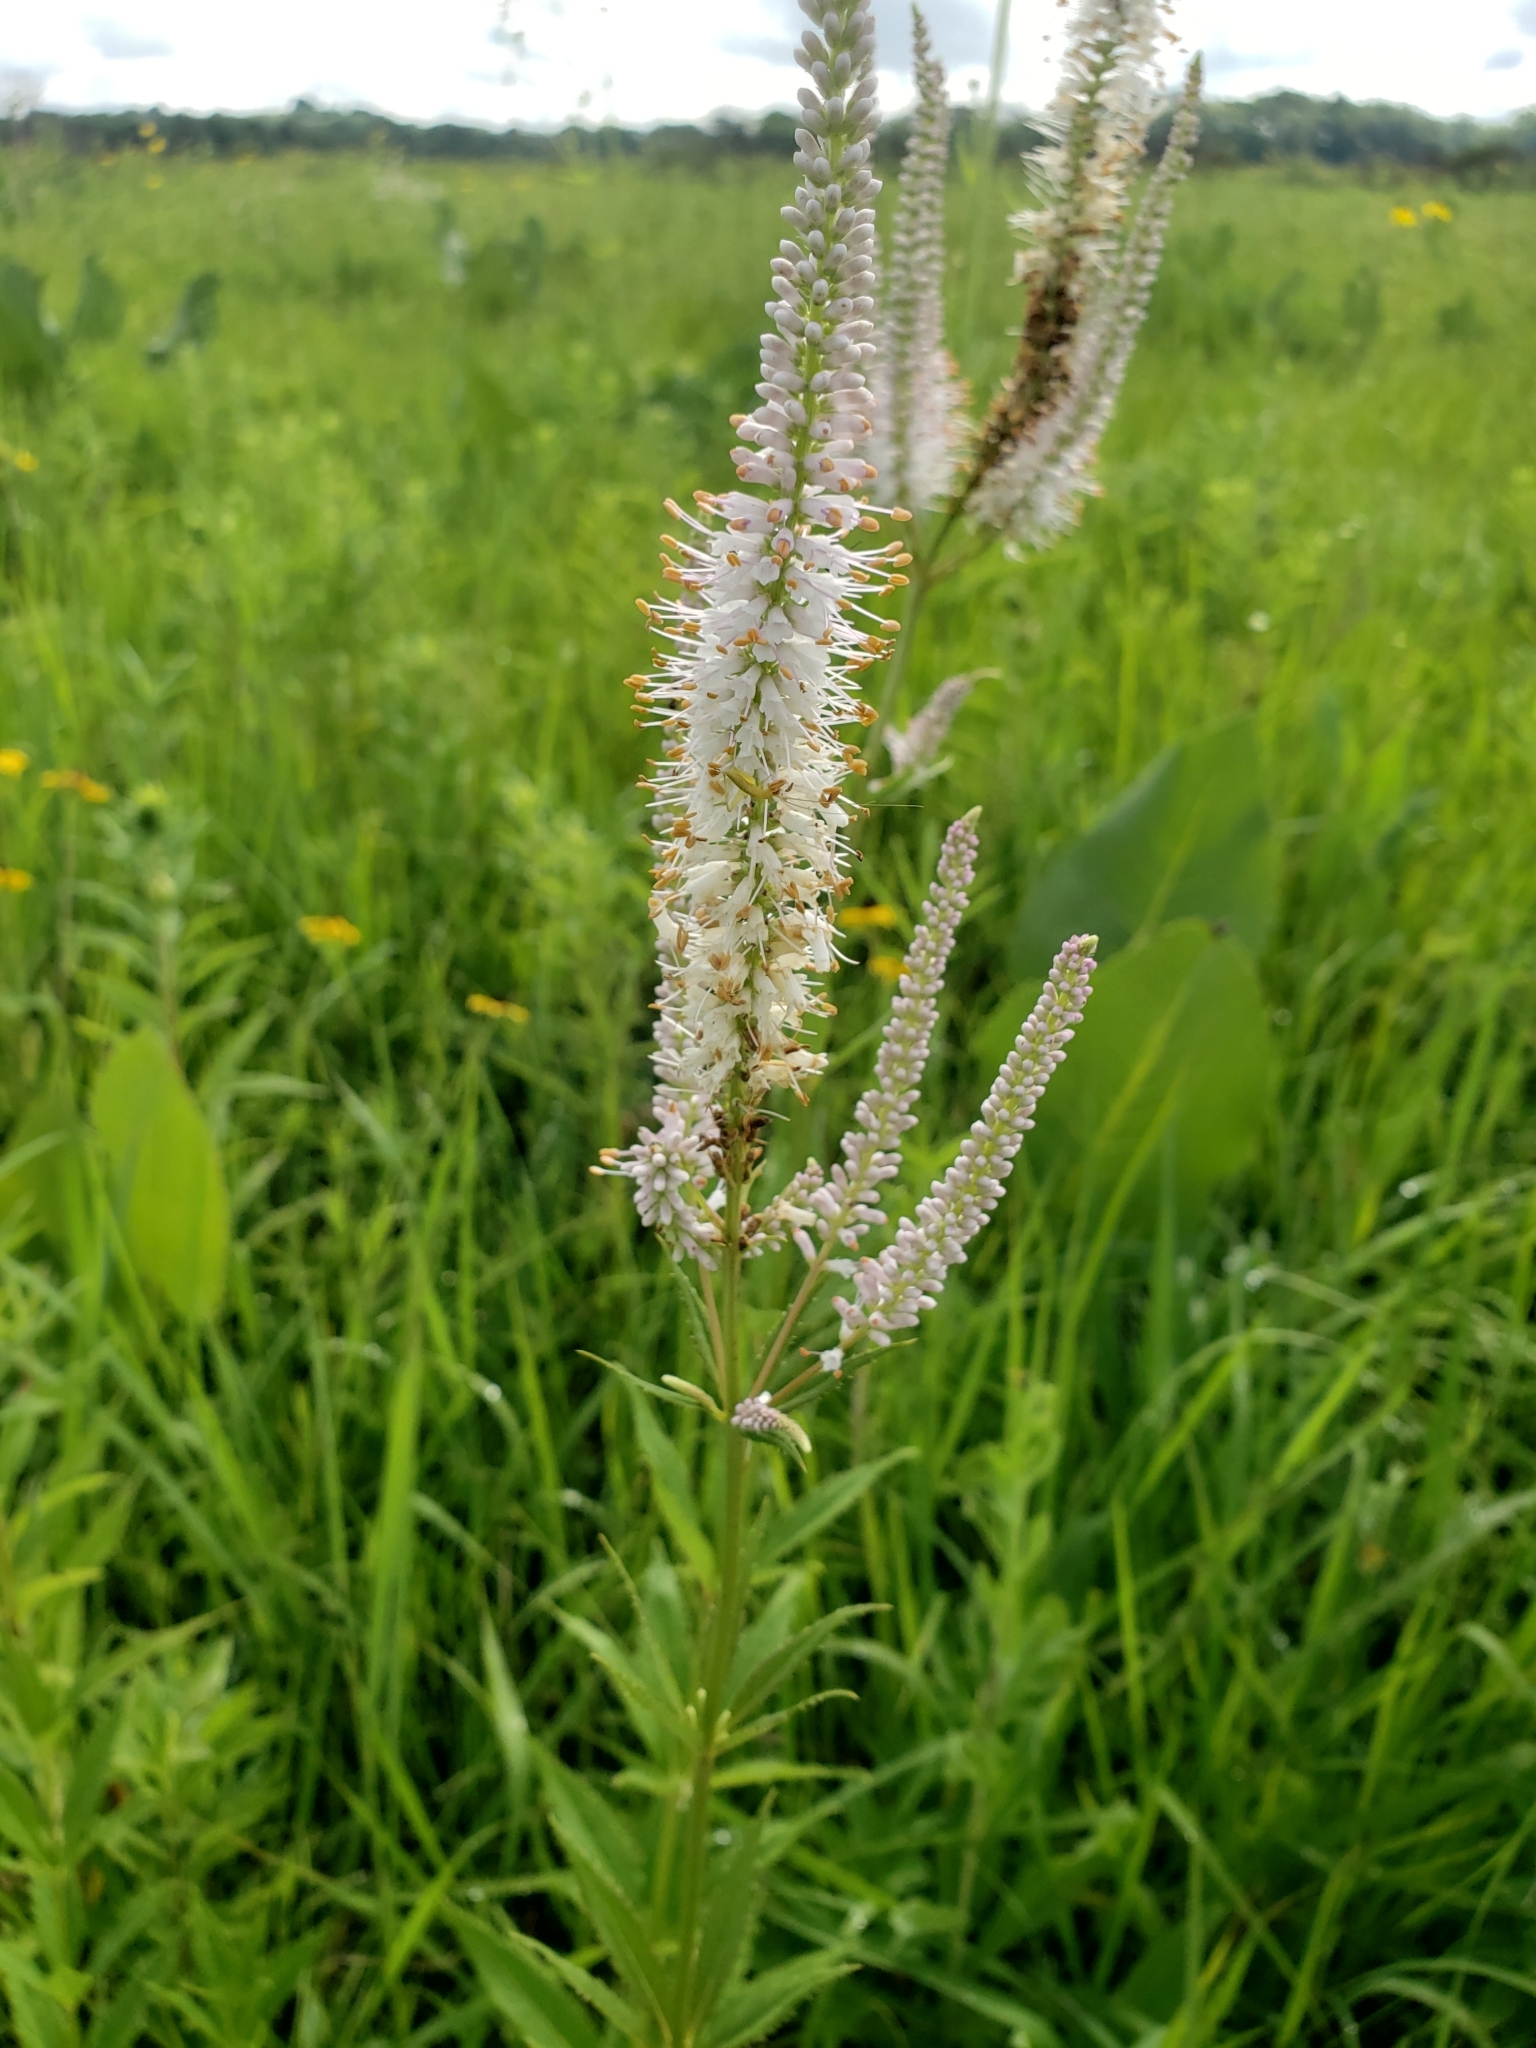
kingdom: Plantae
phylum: Tracheophyta
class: Magnoliopsida
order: Lamiales
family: Plantaginaceae
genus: Veronicastrum
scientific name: Veronicastrum virginicum
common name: Blackroot
